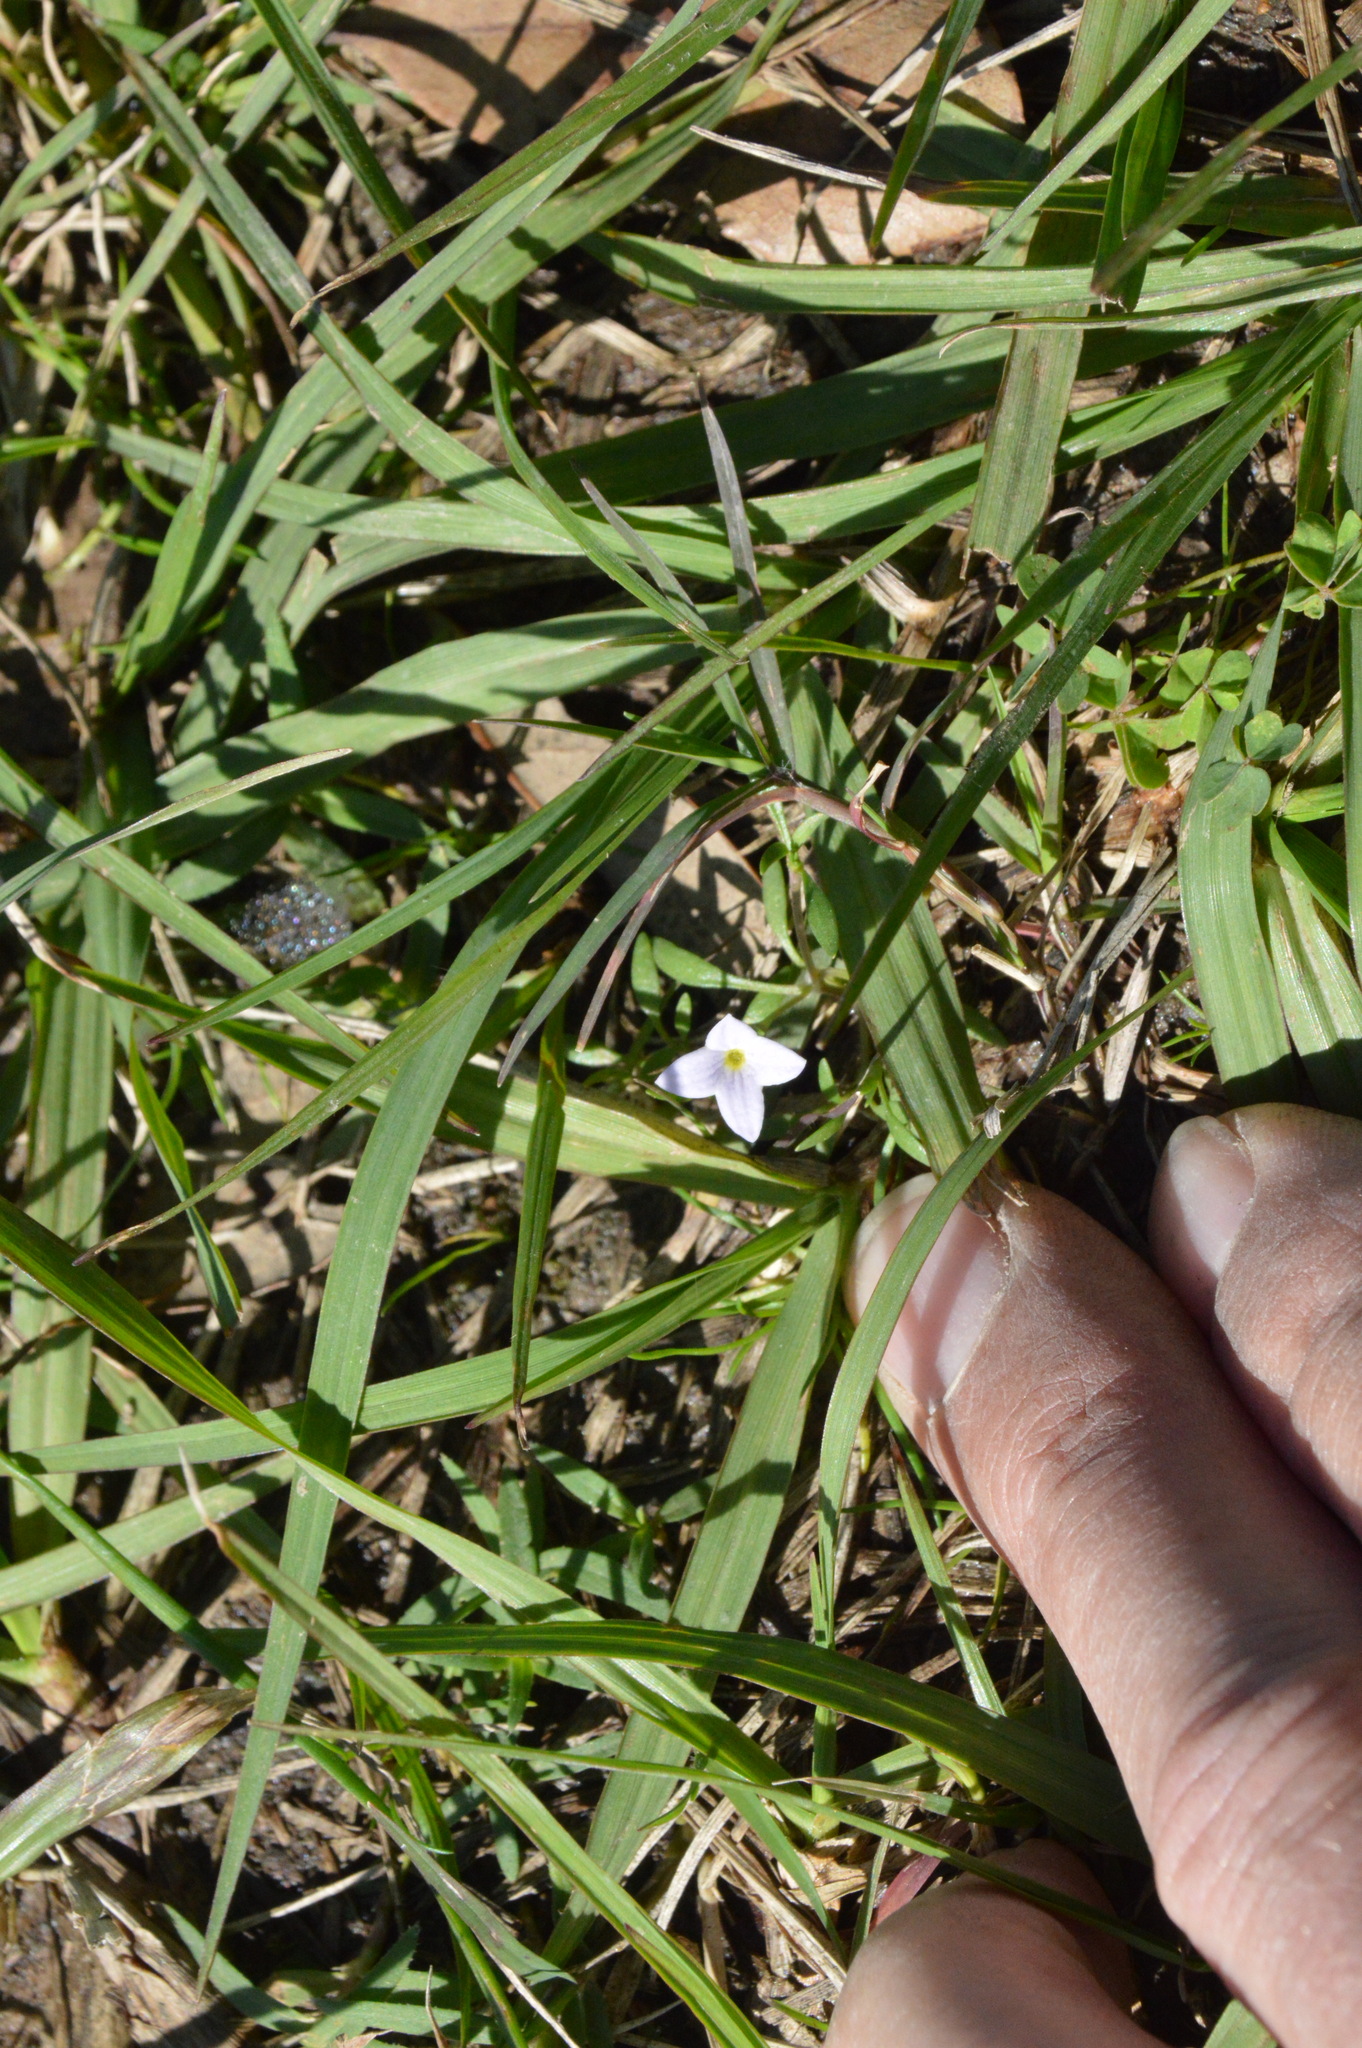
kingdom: Plantae
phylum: Tracheophyta
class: Magnoliopsida
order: Gentianales
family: Rubiaceae
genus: Houstonia
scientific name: Houstonia rosea
